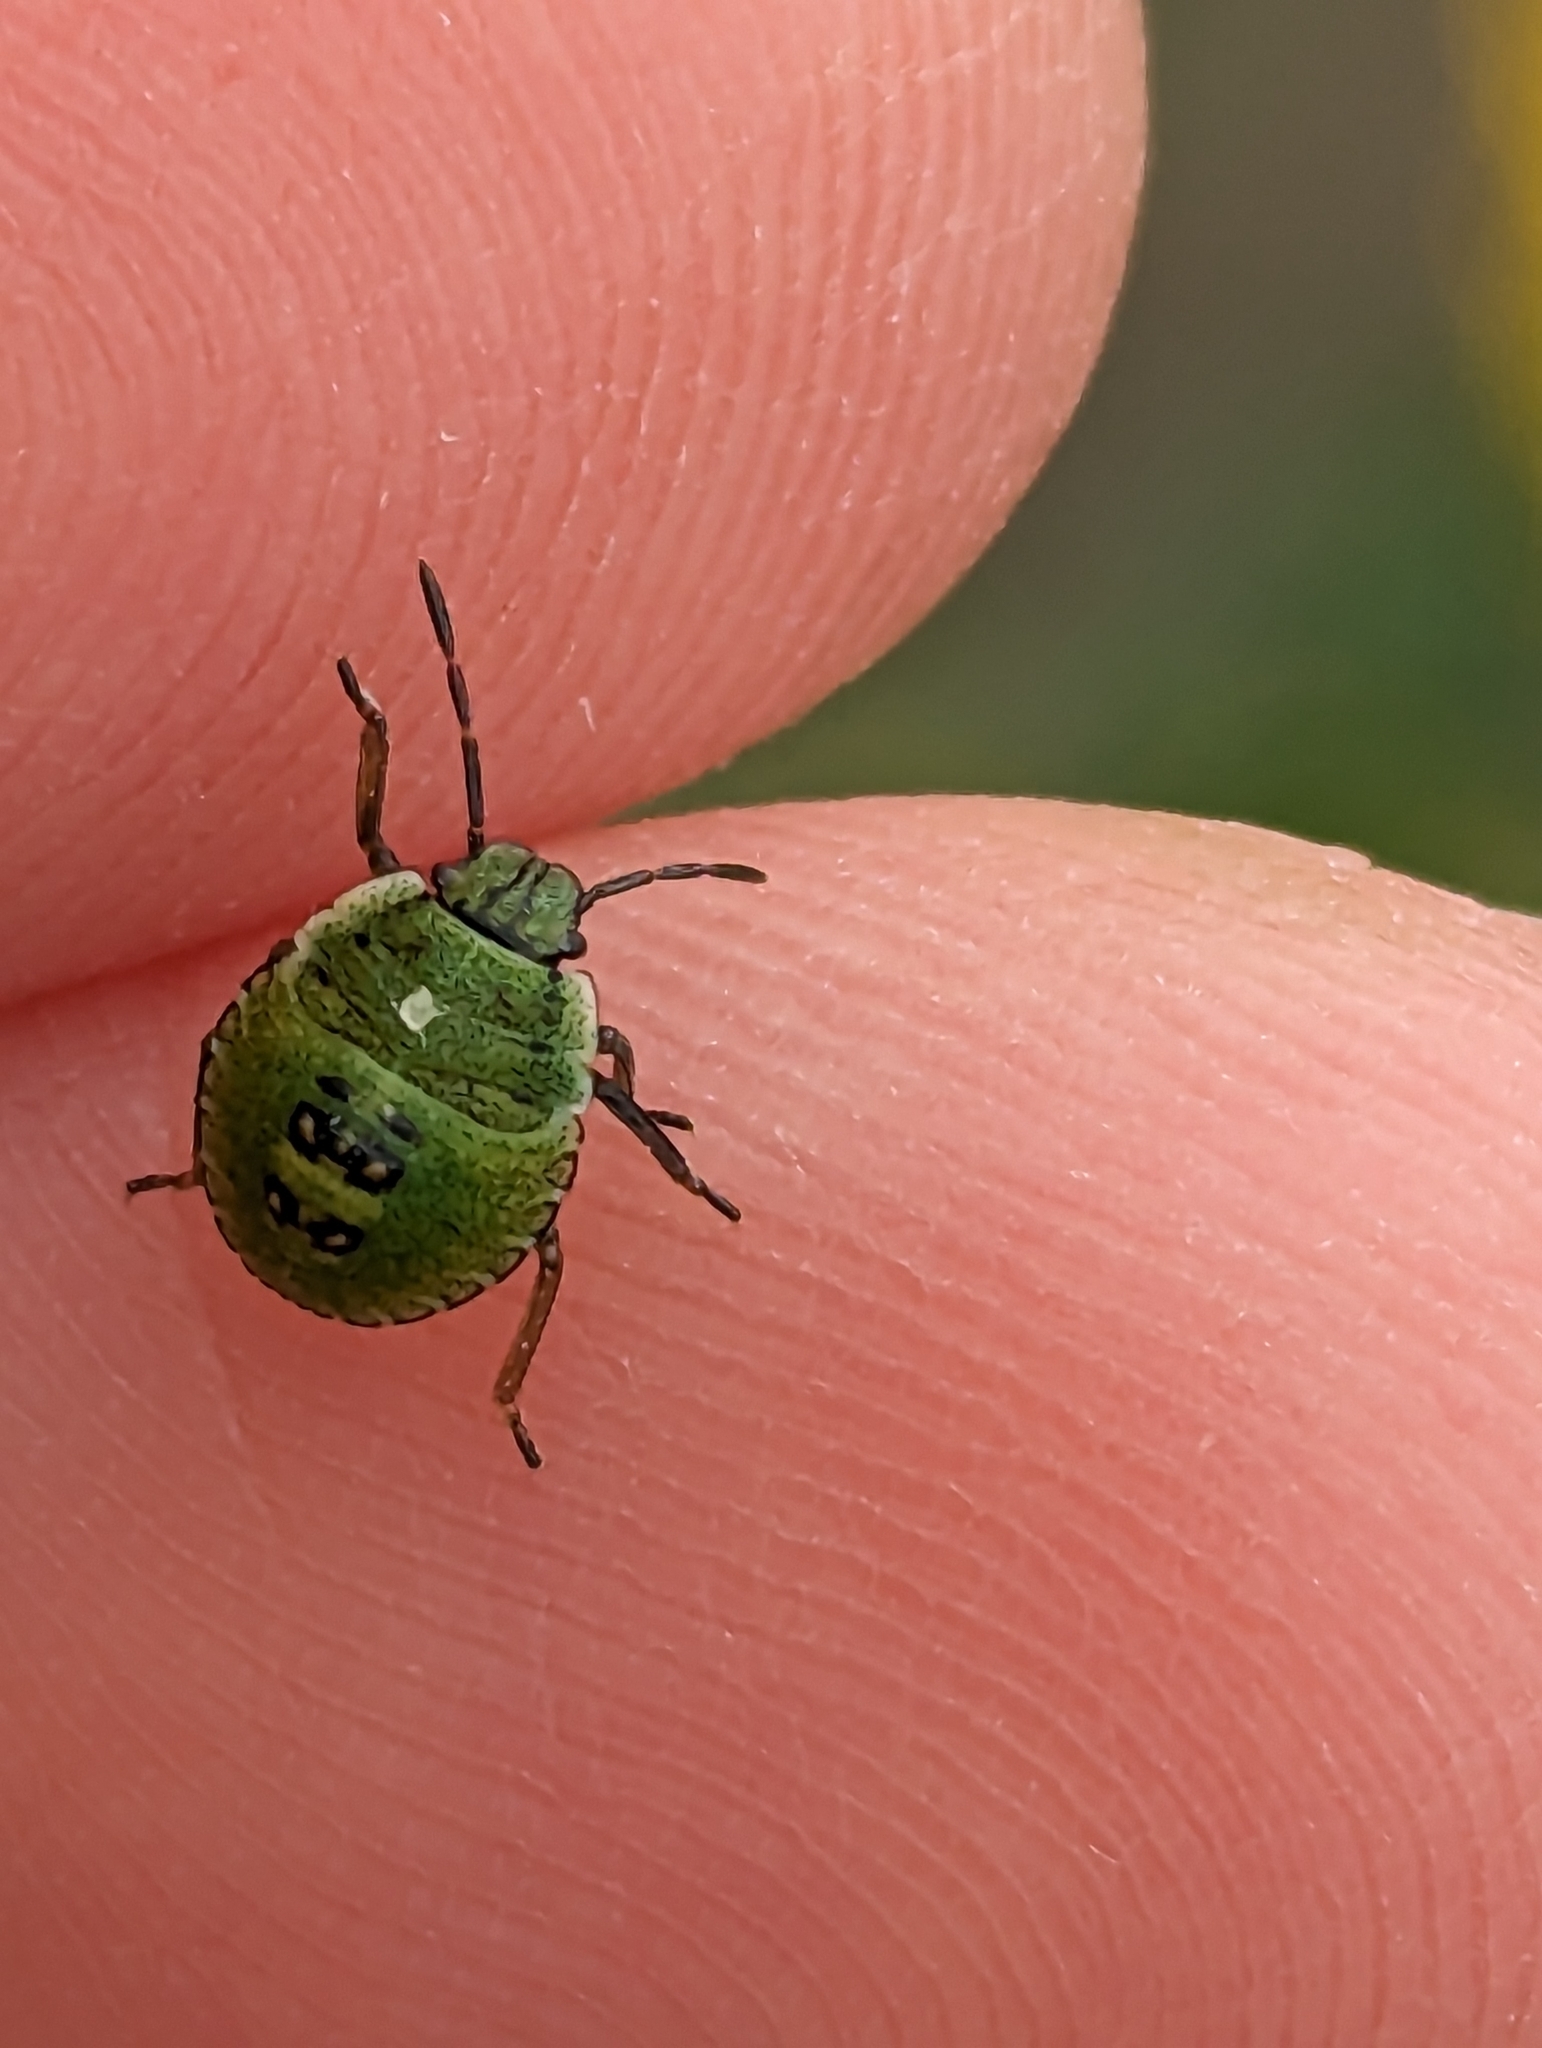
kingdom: Animalia
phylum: Arthropoda
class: Insecta
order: Hemiptera
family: Pentatomidae
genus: Palomena
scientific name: Palomena prasina
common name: Green shieldbug
